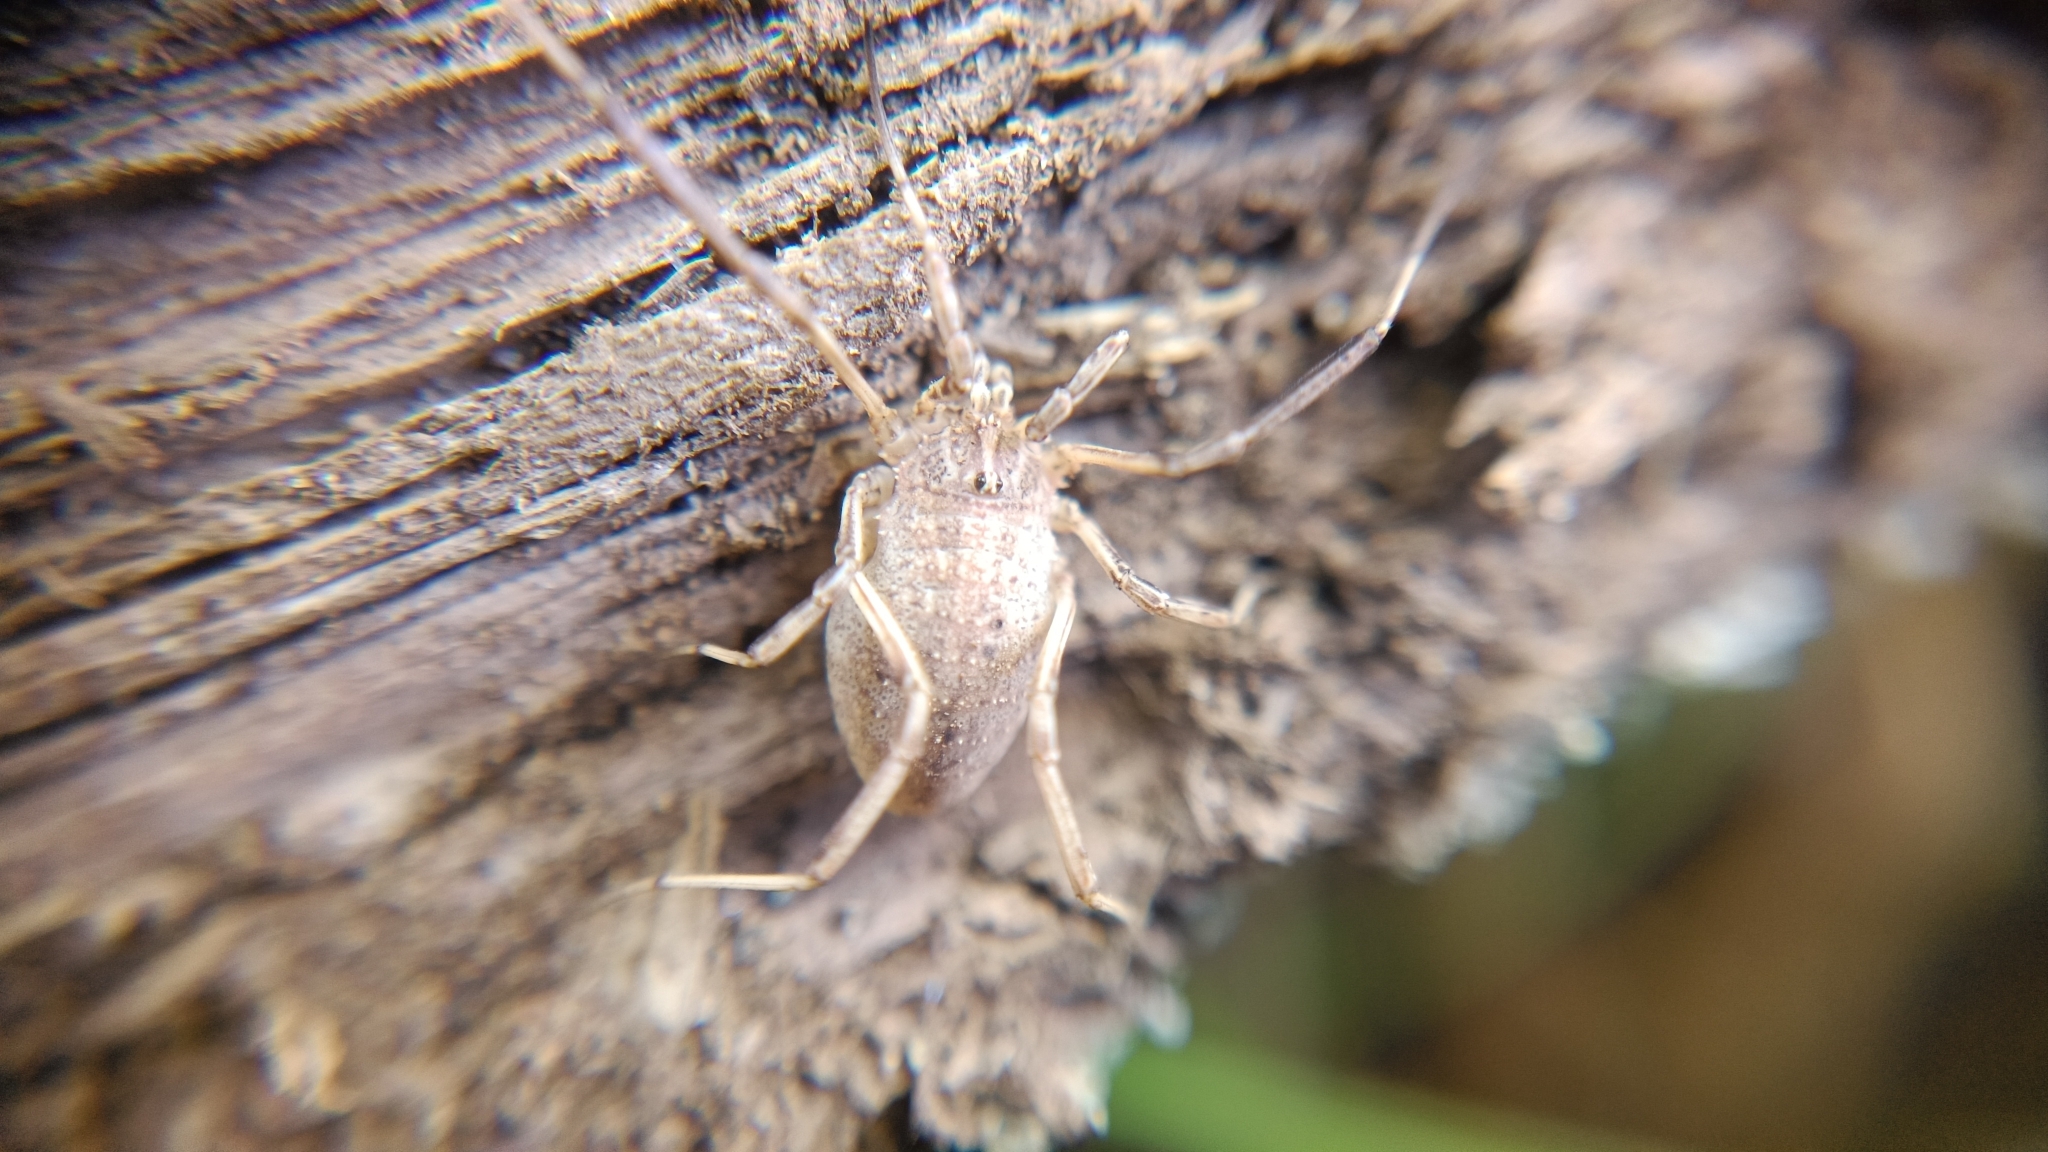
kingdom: Animalia
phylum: Arthropoda
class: Arachnida
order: Opiliones
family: Phalangiidae
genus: Odiellus
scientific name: Odiellus troguloides
